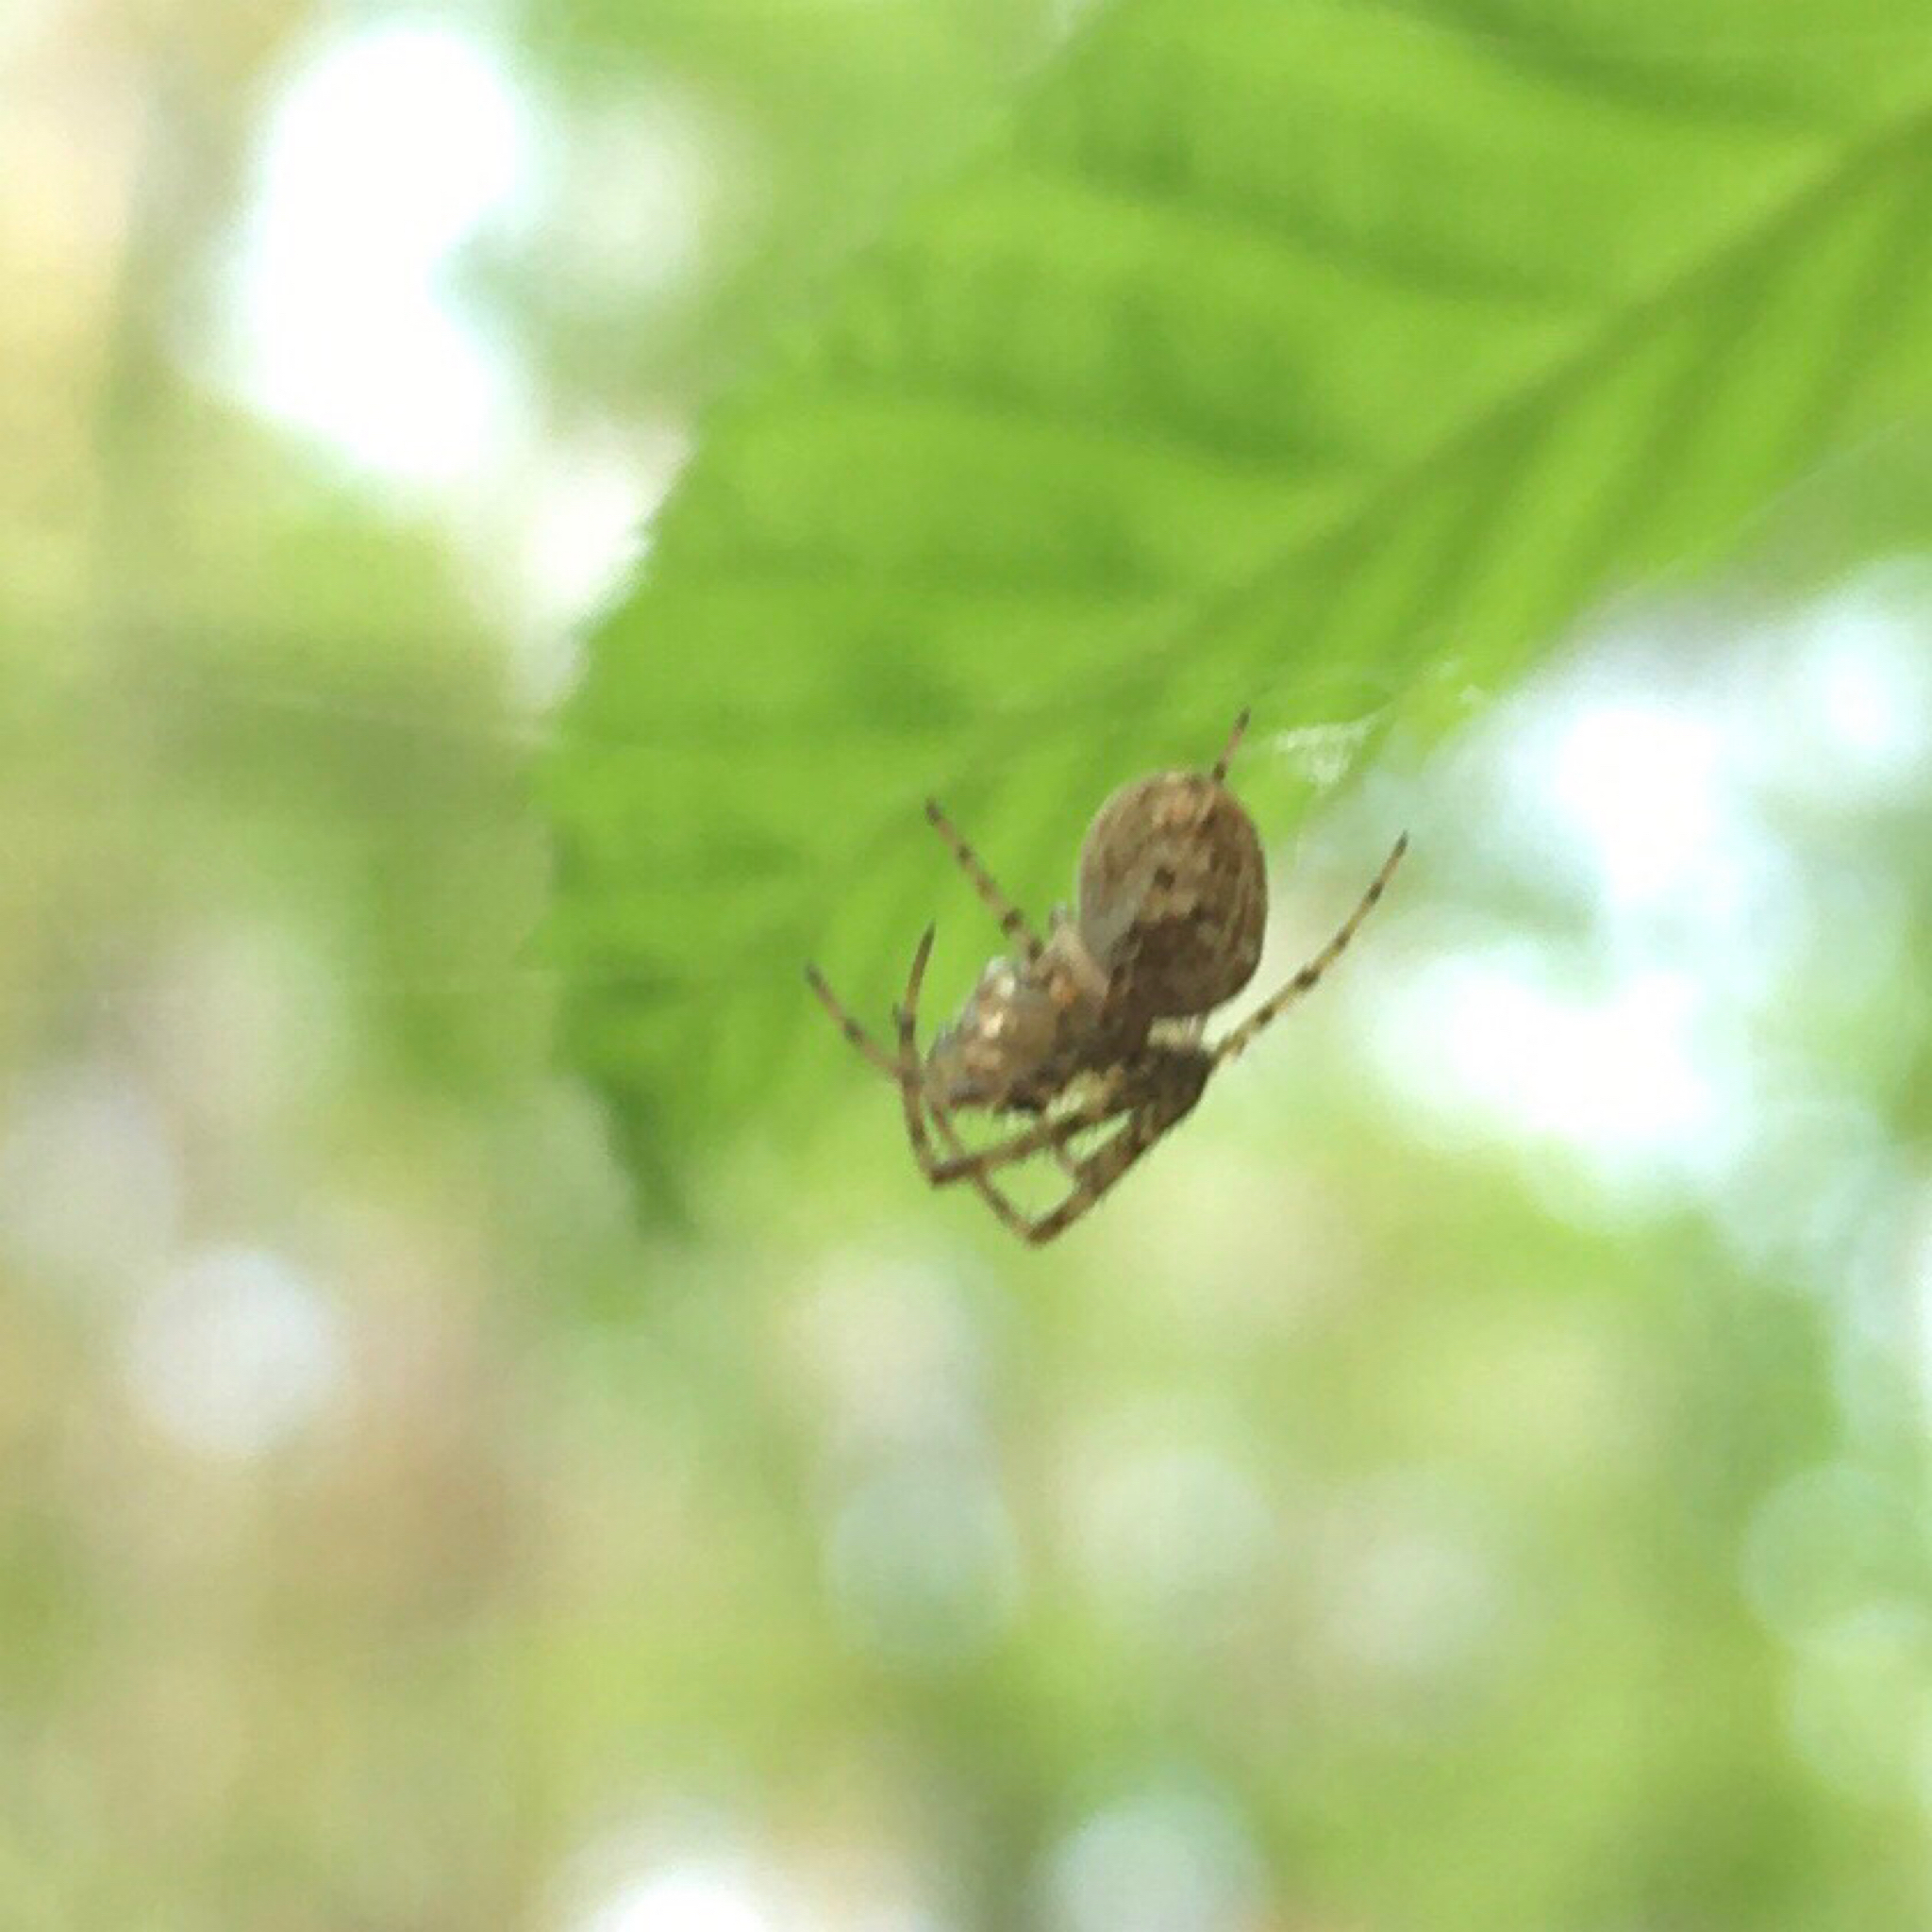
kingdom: Animalia
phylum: Arthropoda
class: Arachnida
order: Araneae
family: Tetragnathidae
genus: Metellina
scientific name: Metellina
